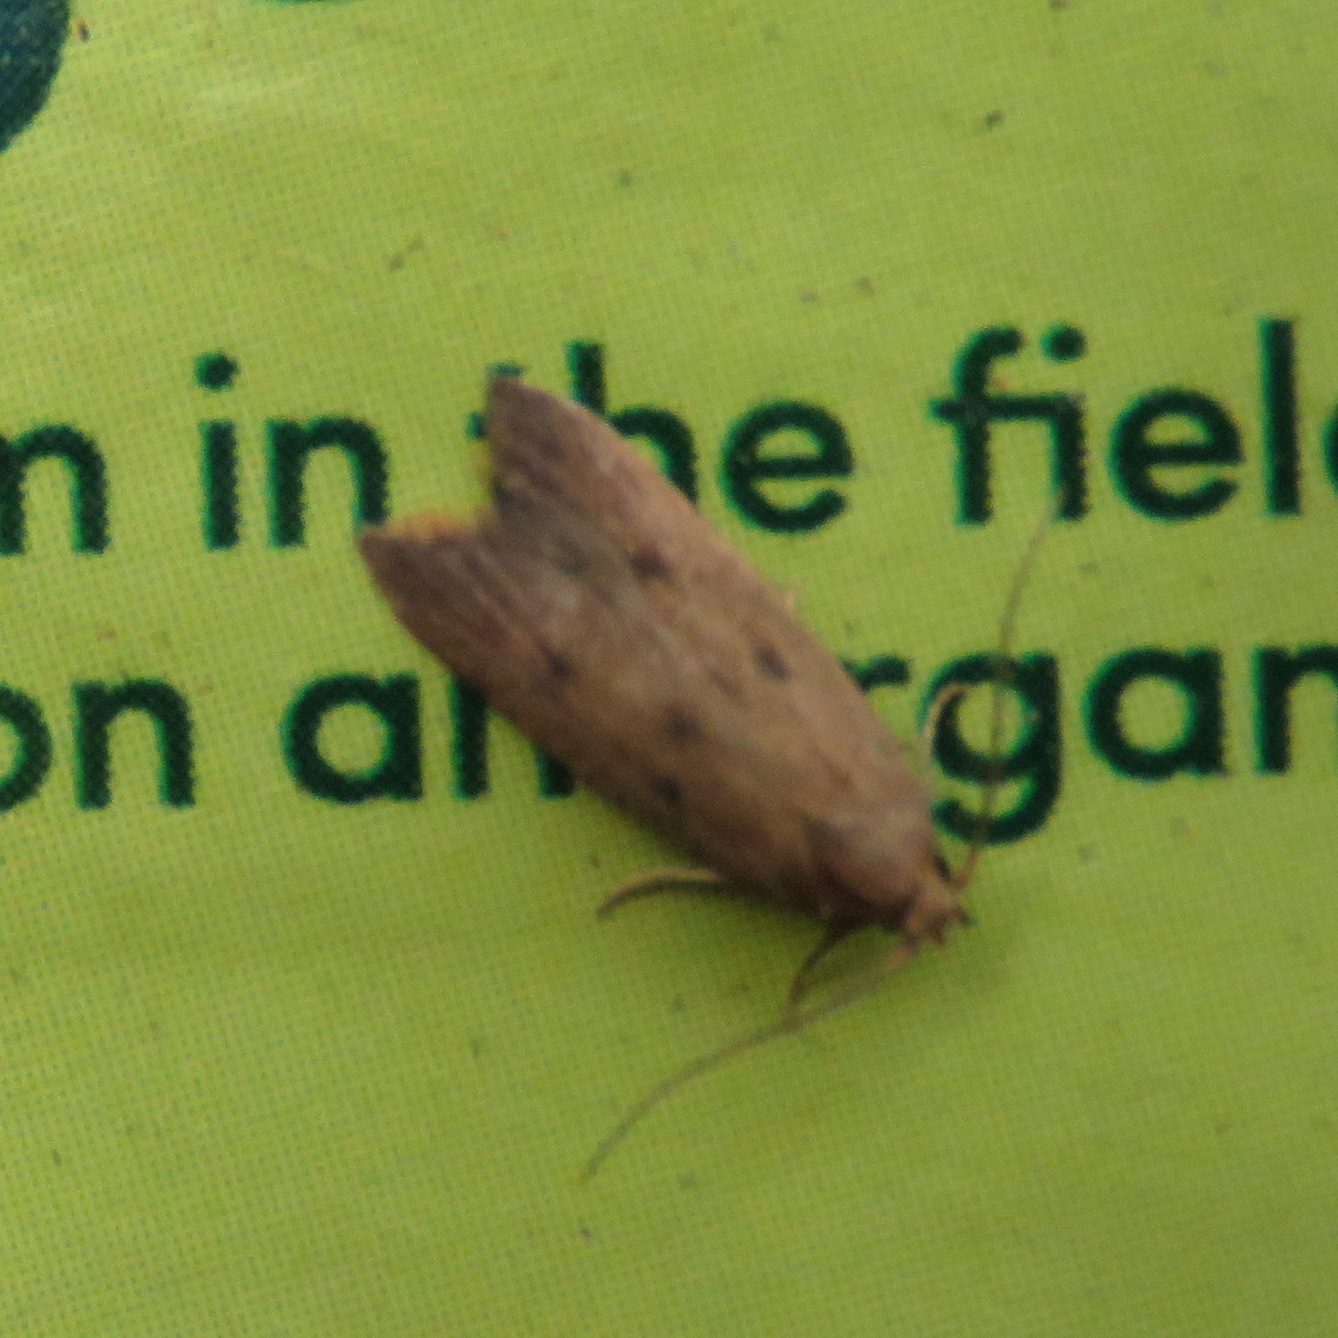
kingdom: Animalia
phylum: Arthropoda
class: Insecta
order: Lepidoptera
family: Oecophoridae
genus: Tachystola
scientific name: Tachystola acroxantha
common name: Ruddy streak
